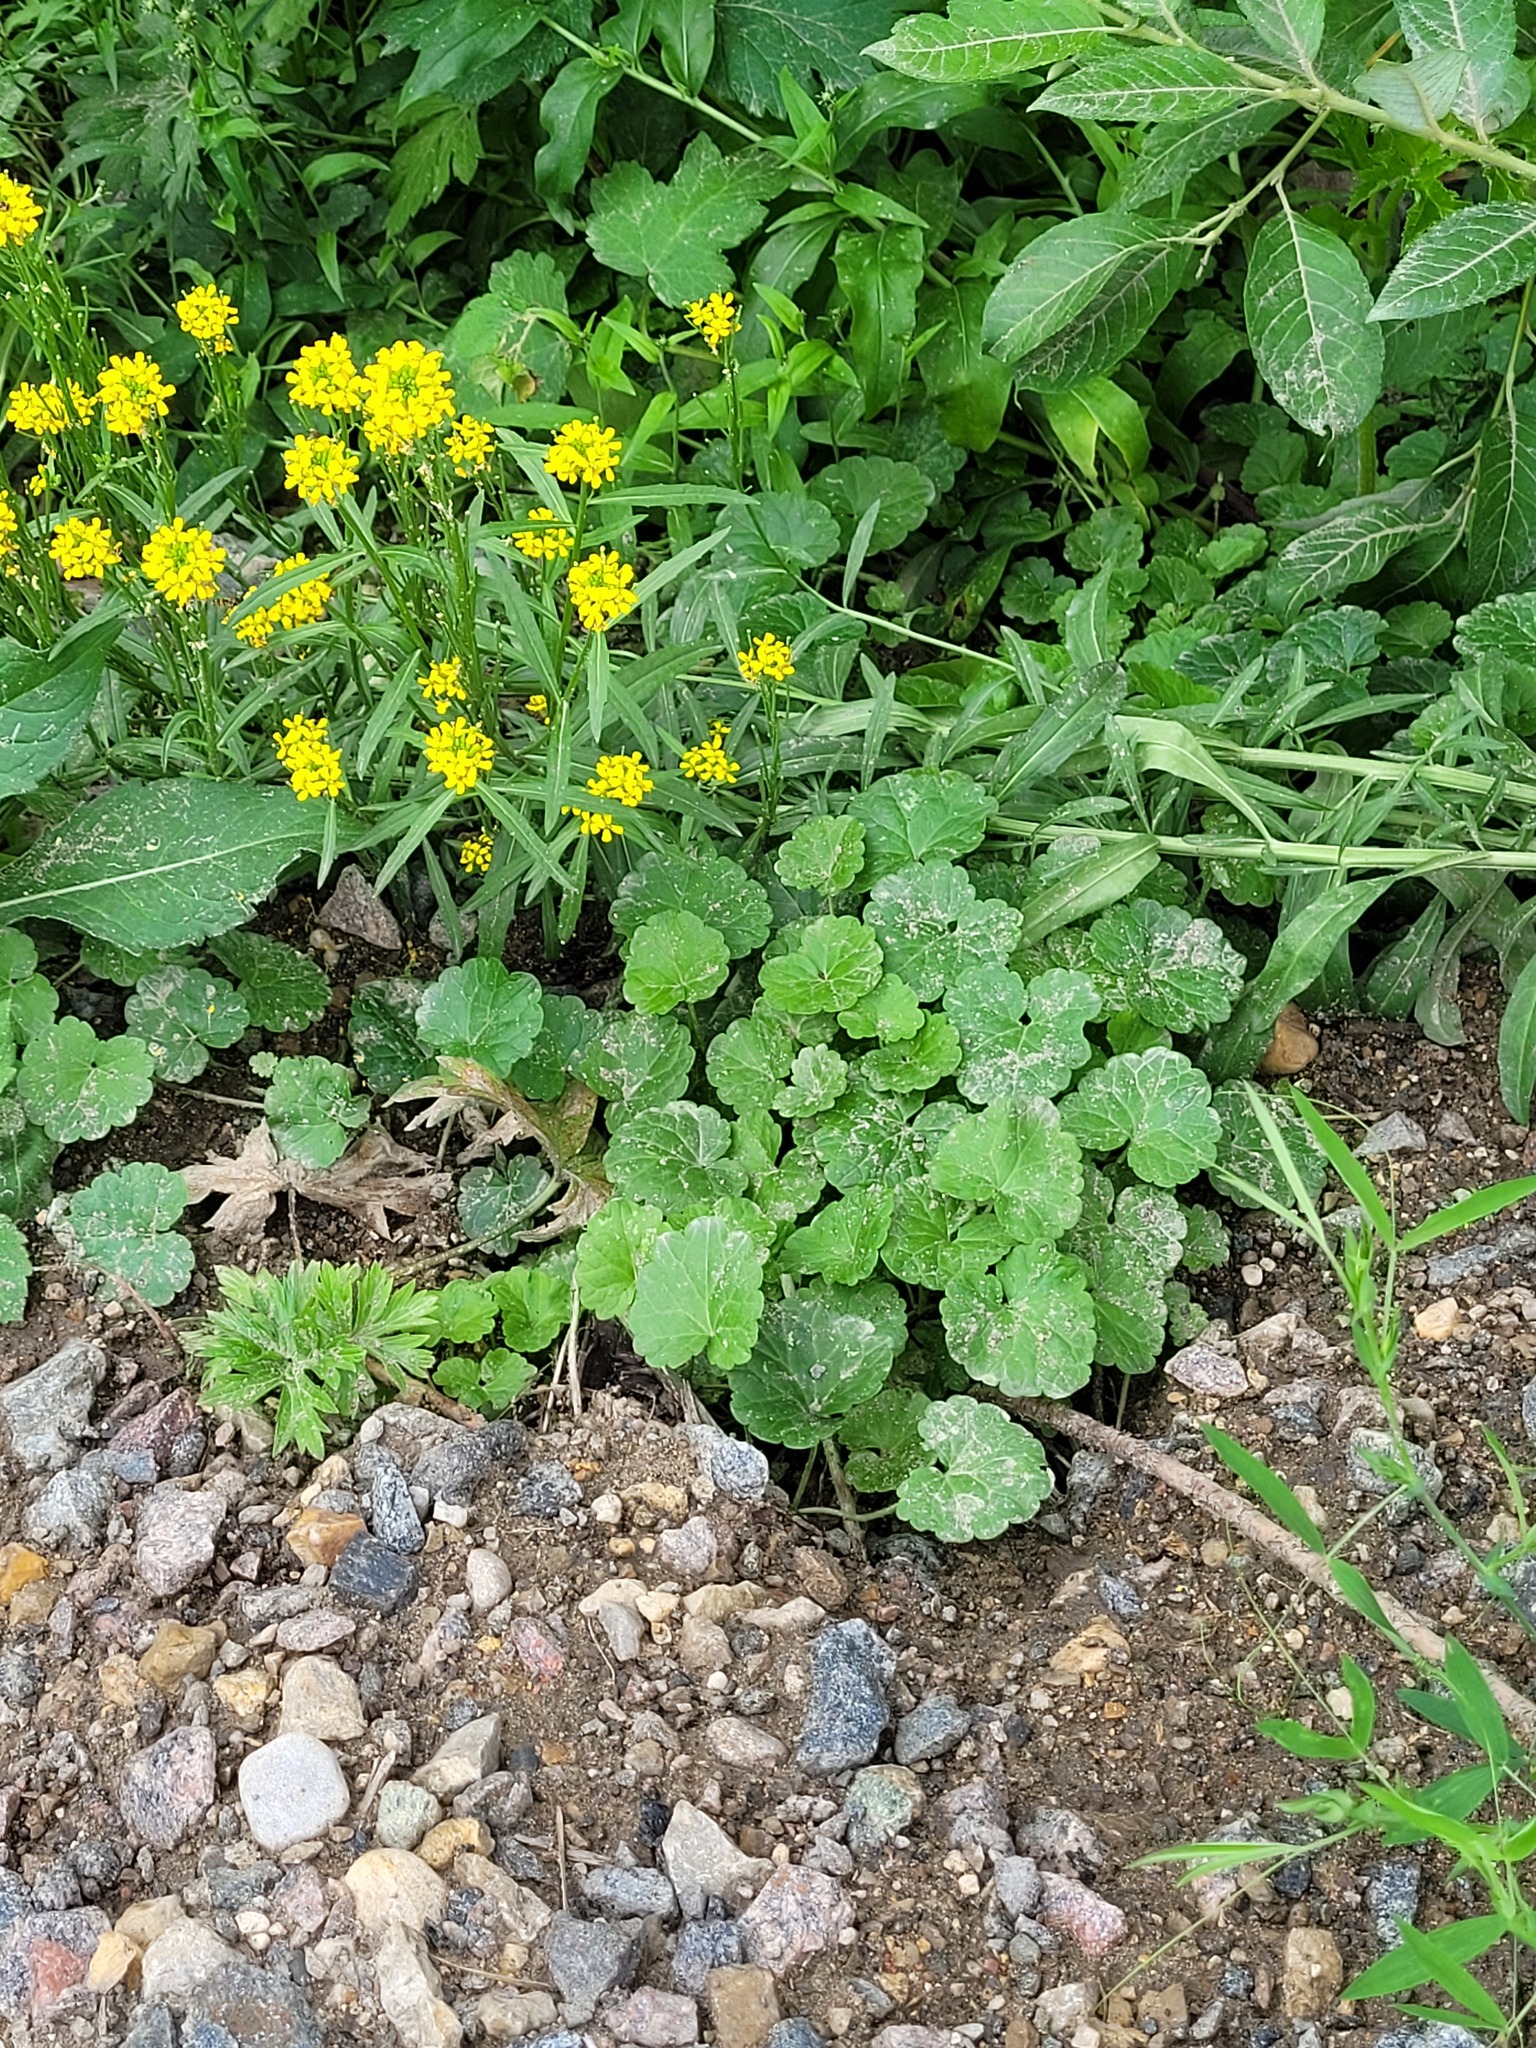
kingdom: Plantae
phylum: Tracheophyta
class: Magnoliopsida
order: Lamiales
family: Lamiaceae
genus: Glechoma
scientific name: Glechoma hederacea
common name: Ground ivy
